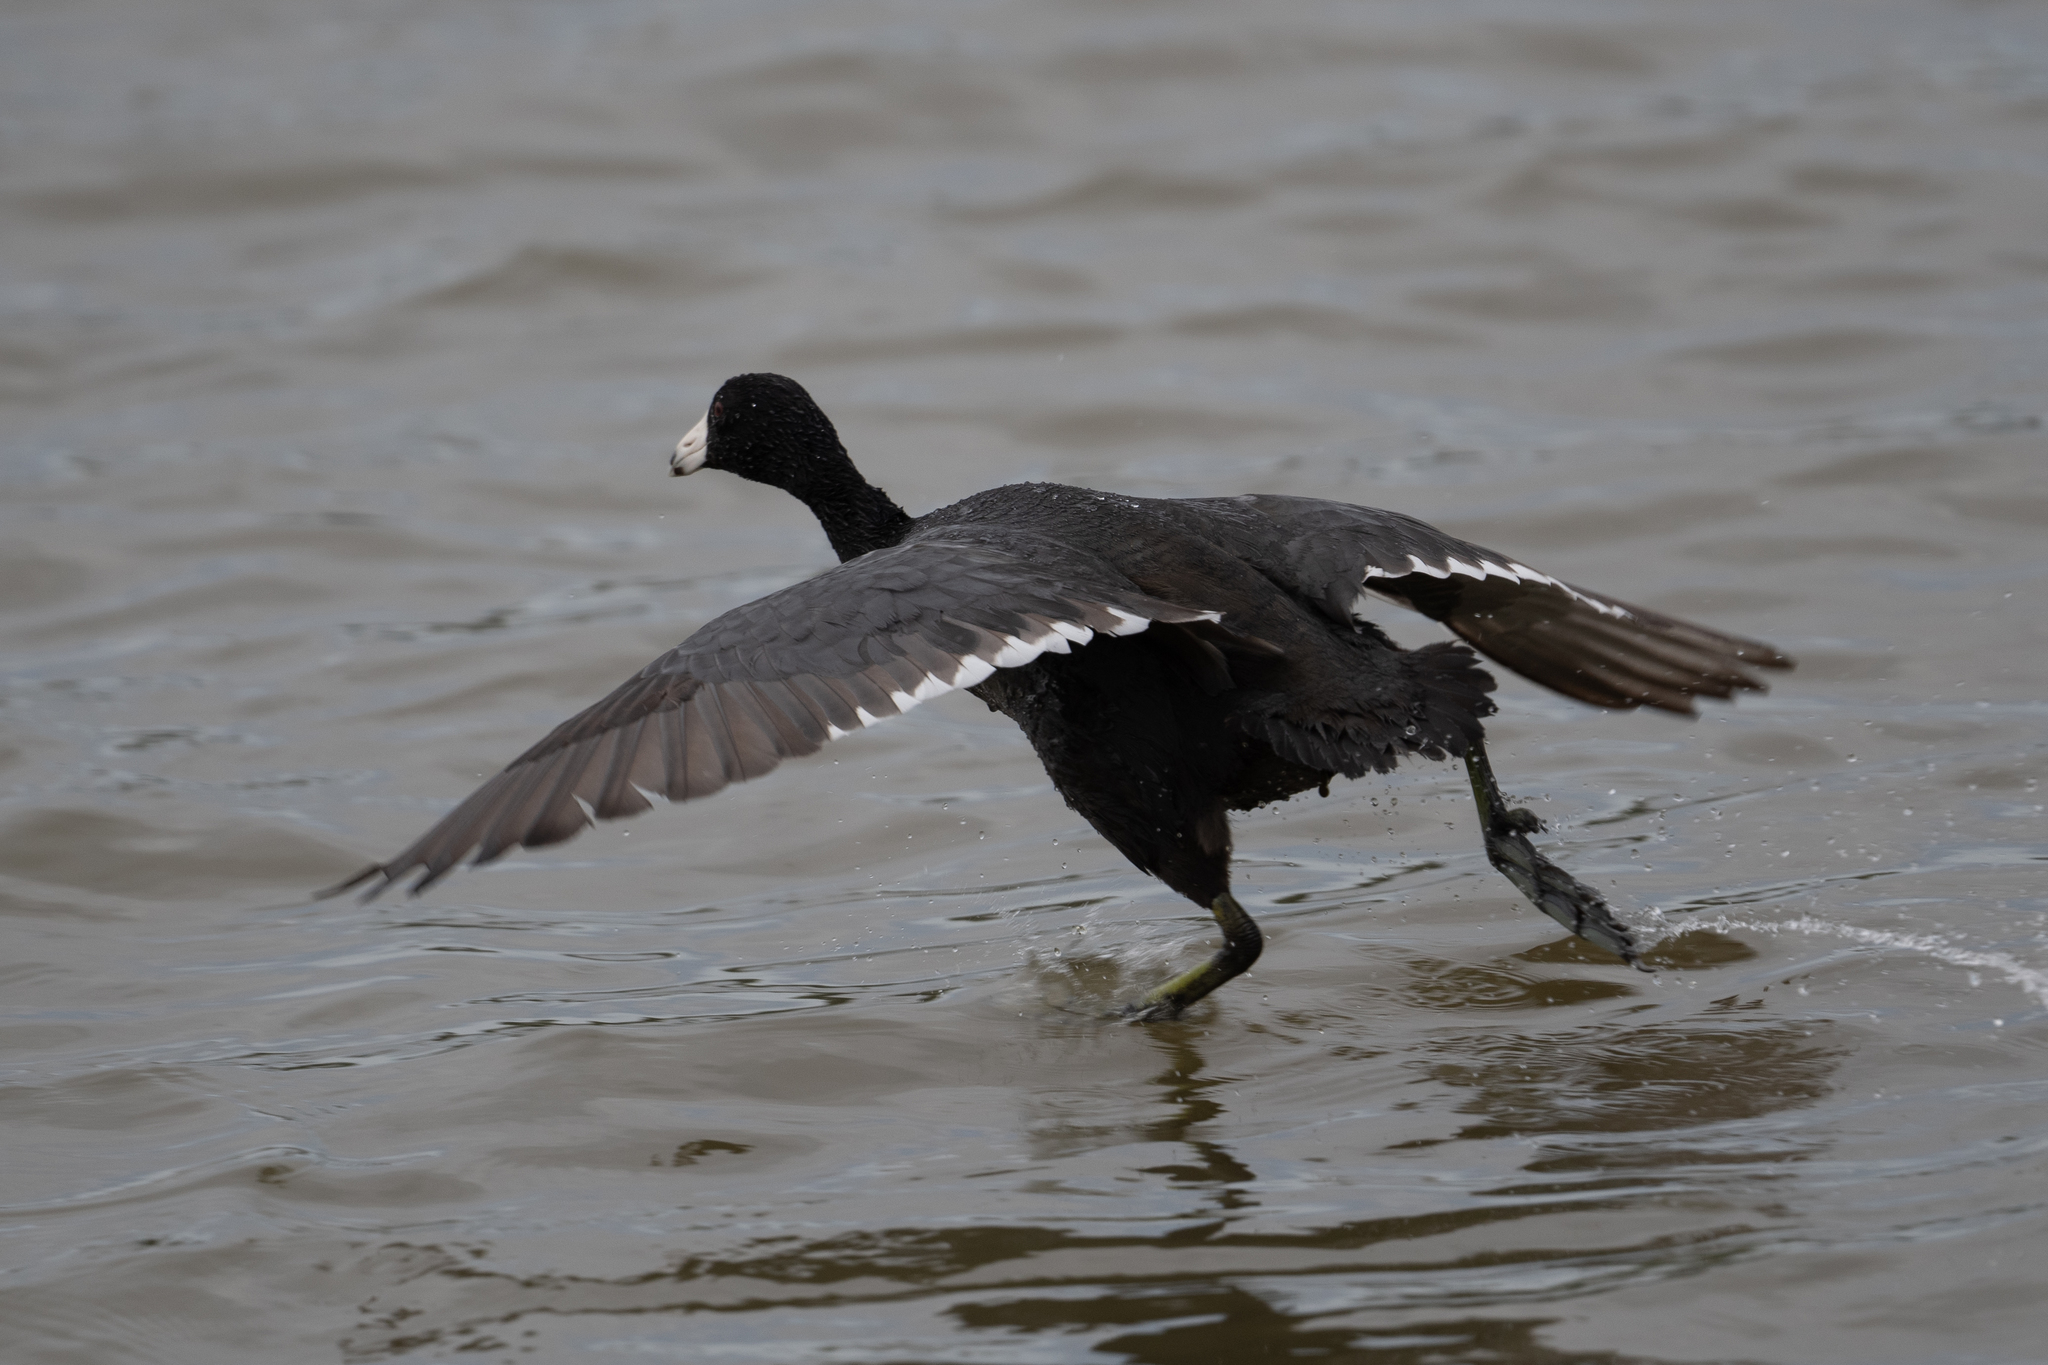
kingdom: Animalia
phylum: Chordata
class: Aves
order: Gruiformes
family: Rallidae
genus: Fulica
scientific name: Fulica americana
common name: American coot
